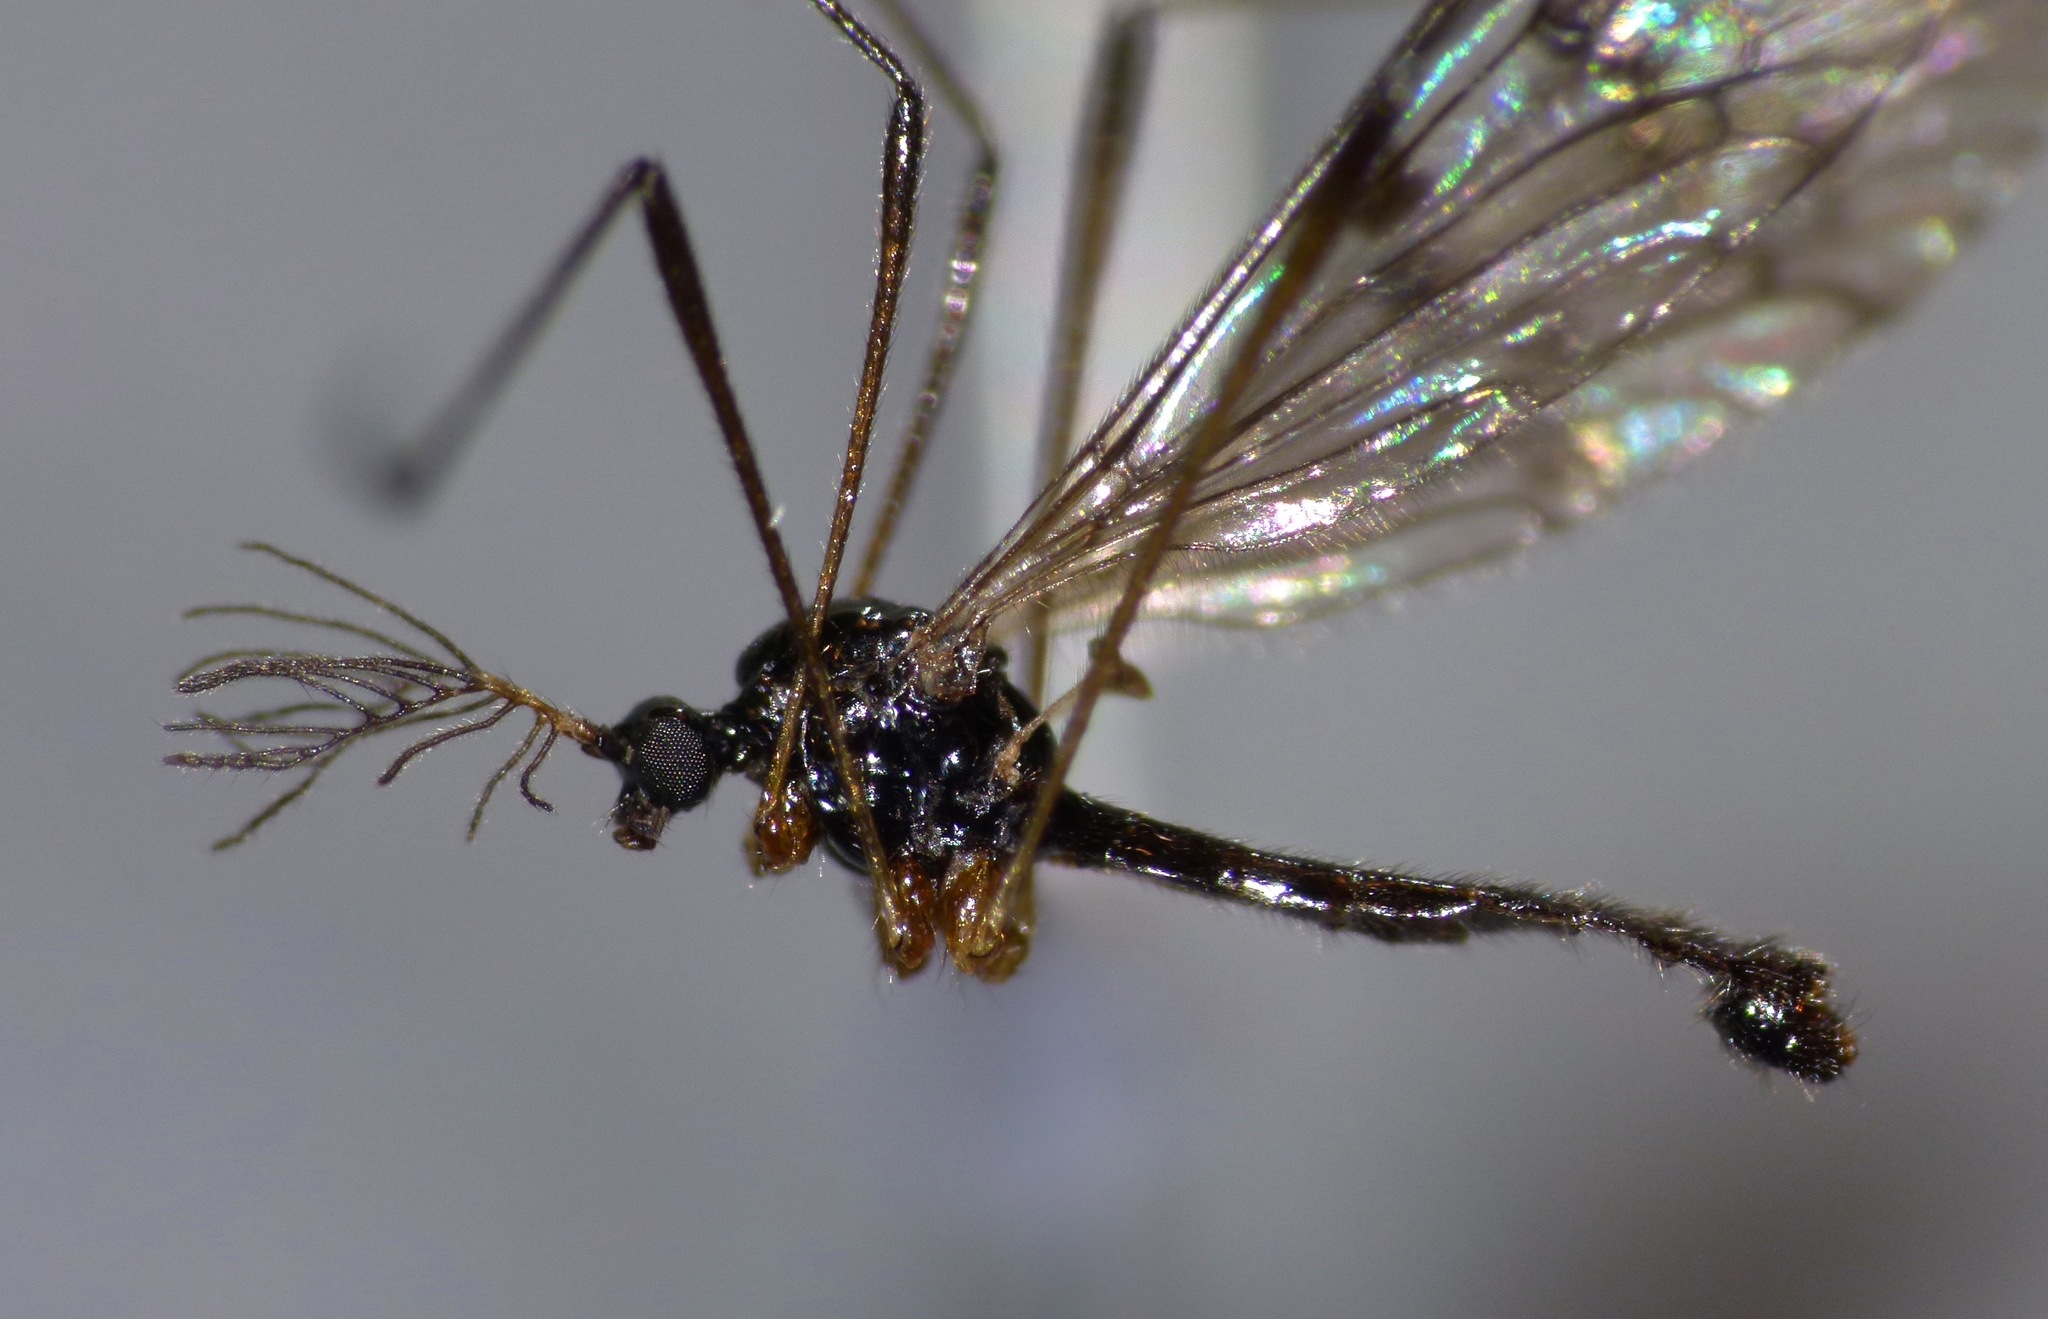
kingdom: Animalia
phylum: Arthropoda
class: Insecta
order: Diptera
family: Limoniidae
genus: Gynoplistia
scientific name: Gynoplistia pygmaea
